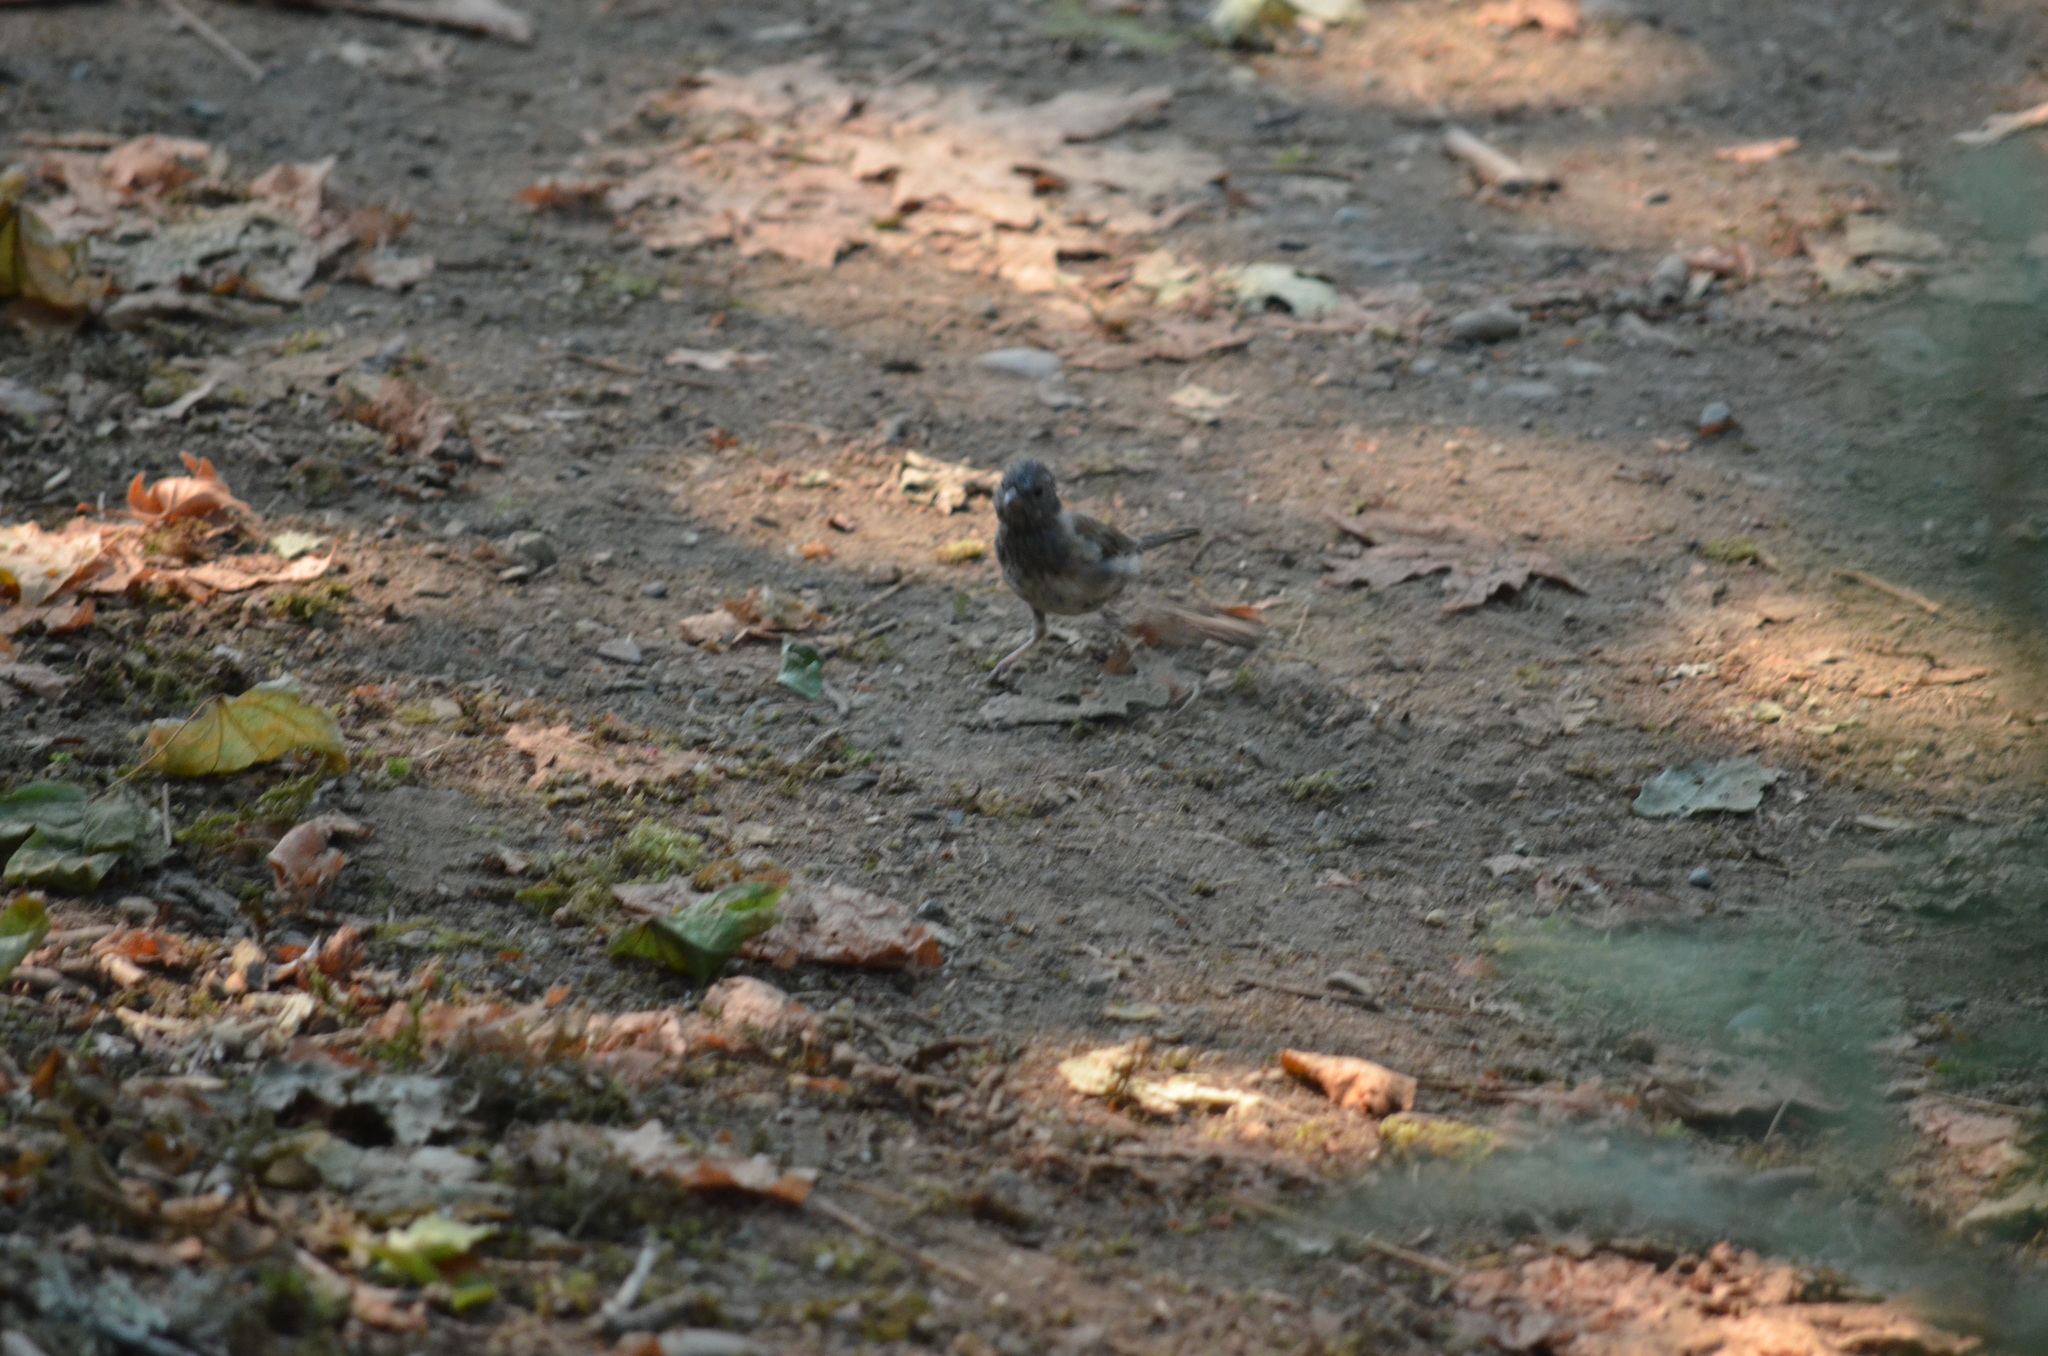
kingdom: Animalia
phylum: Chordata
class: Aves
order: Passeriformes
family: Passerellidae
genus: Junco
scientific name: Junco hyemalis
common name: Dark-eyed junco
